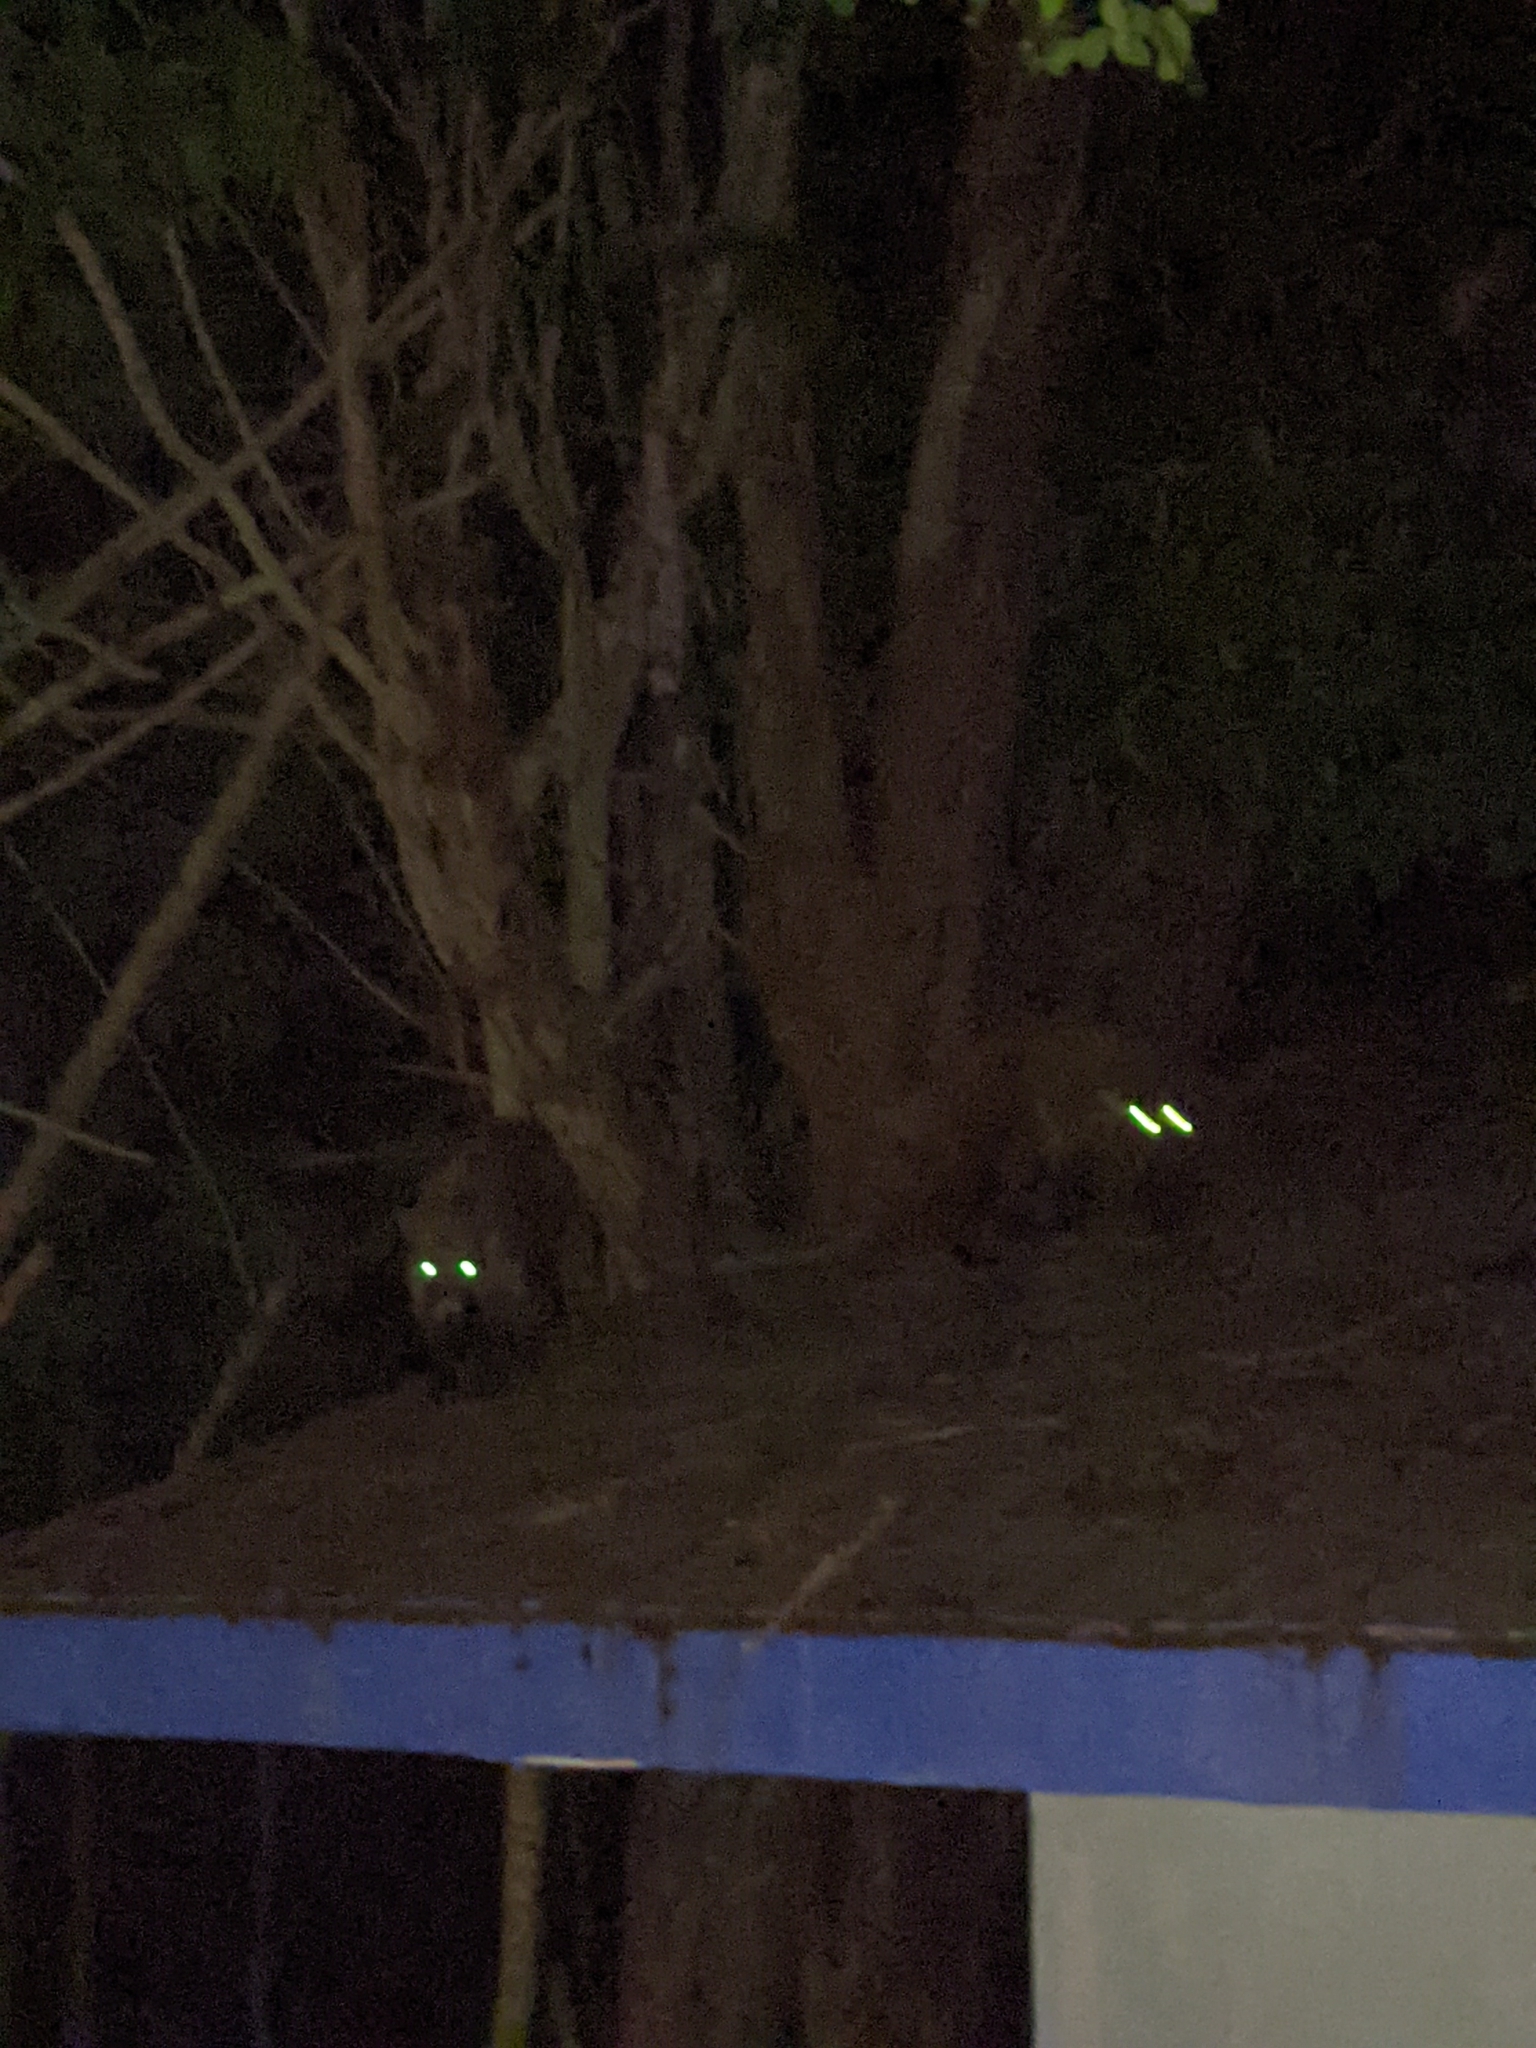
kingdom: Animalia
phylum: Chordata
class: Mammalia
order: Carnivora
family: Procyonidae
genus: Nasua
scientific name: Nasua narica
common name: White-nosed coati
